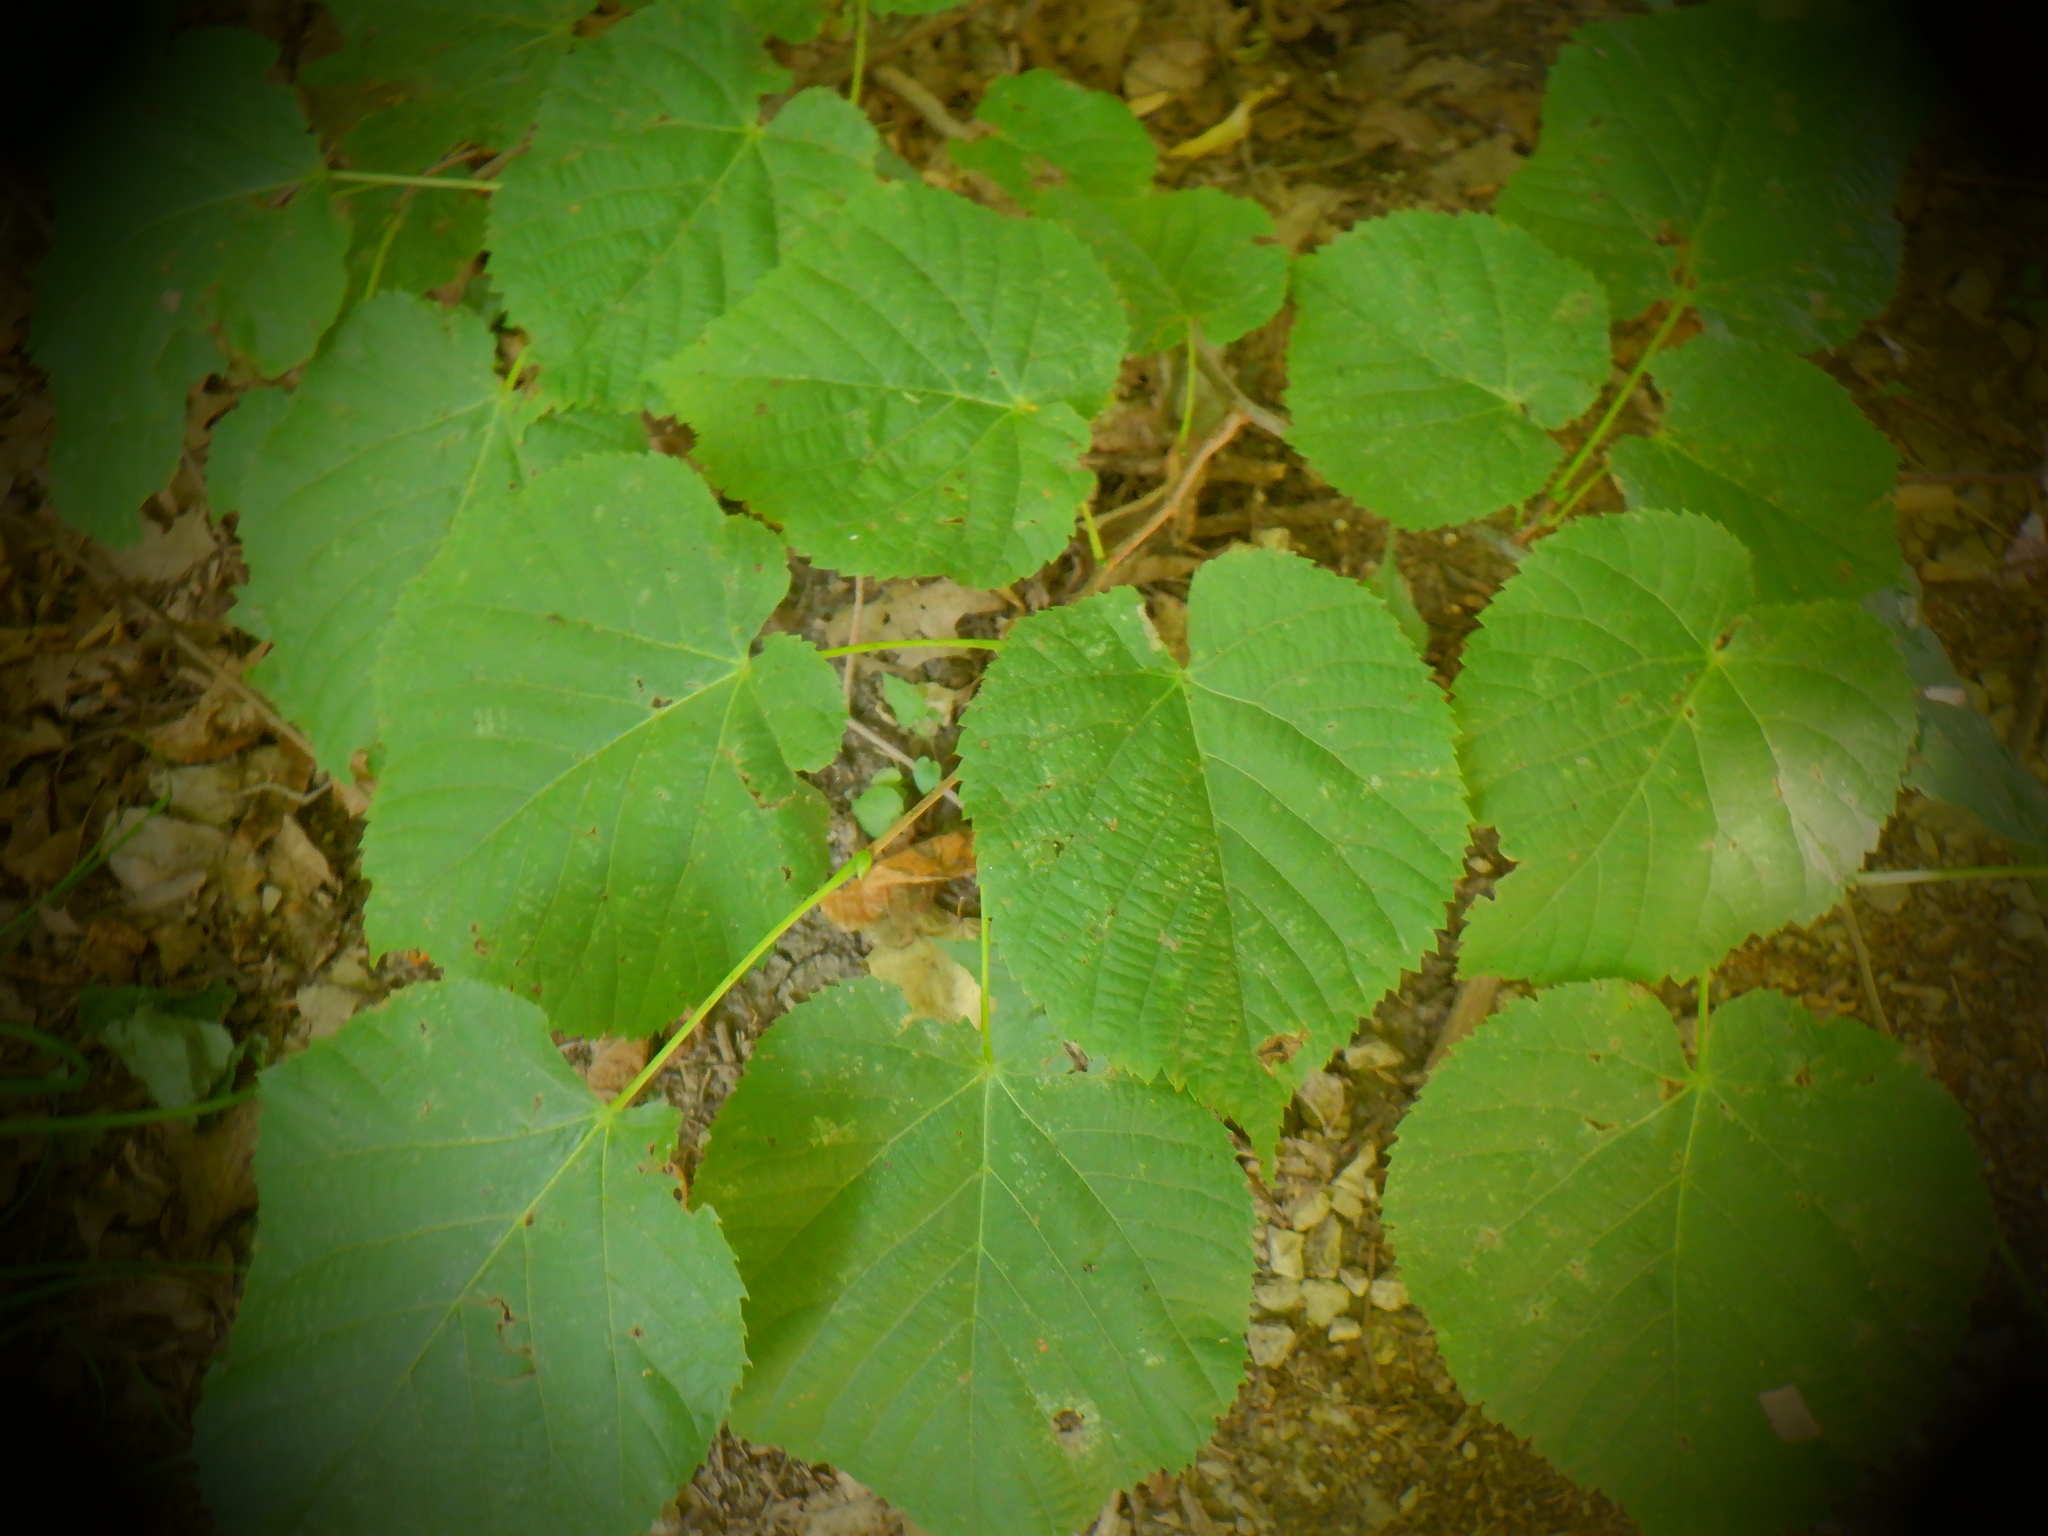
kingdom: Plantae
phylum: Tracheophyta
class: Magnoliopsida
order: Malvales
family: Malvaceae
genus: Tilia
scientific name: Tilia americana
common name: Basswood
